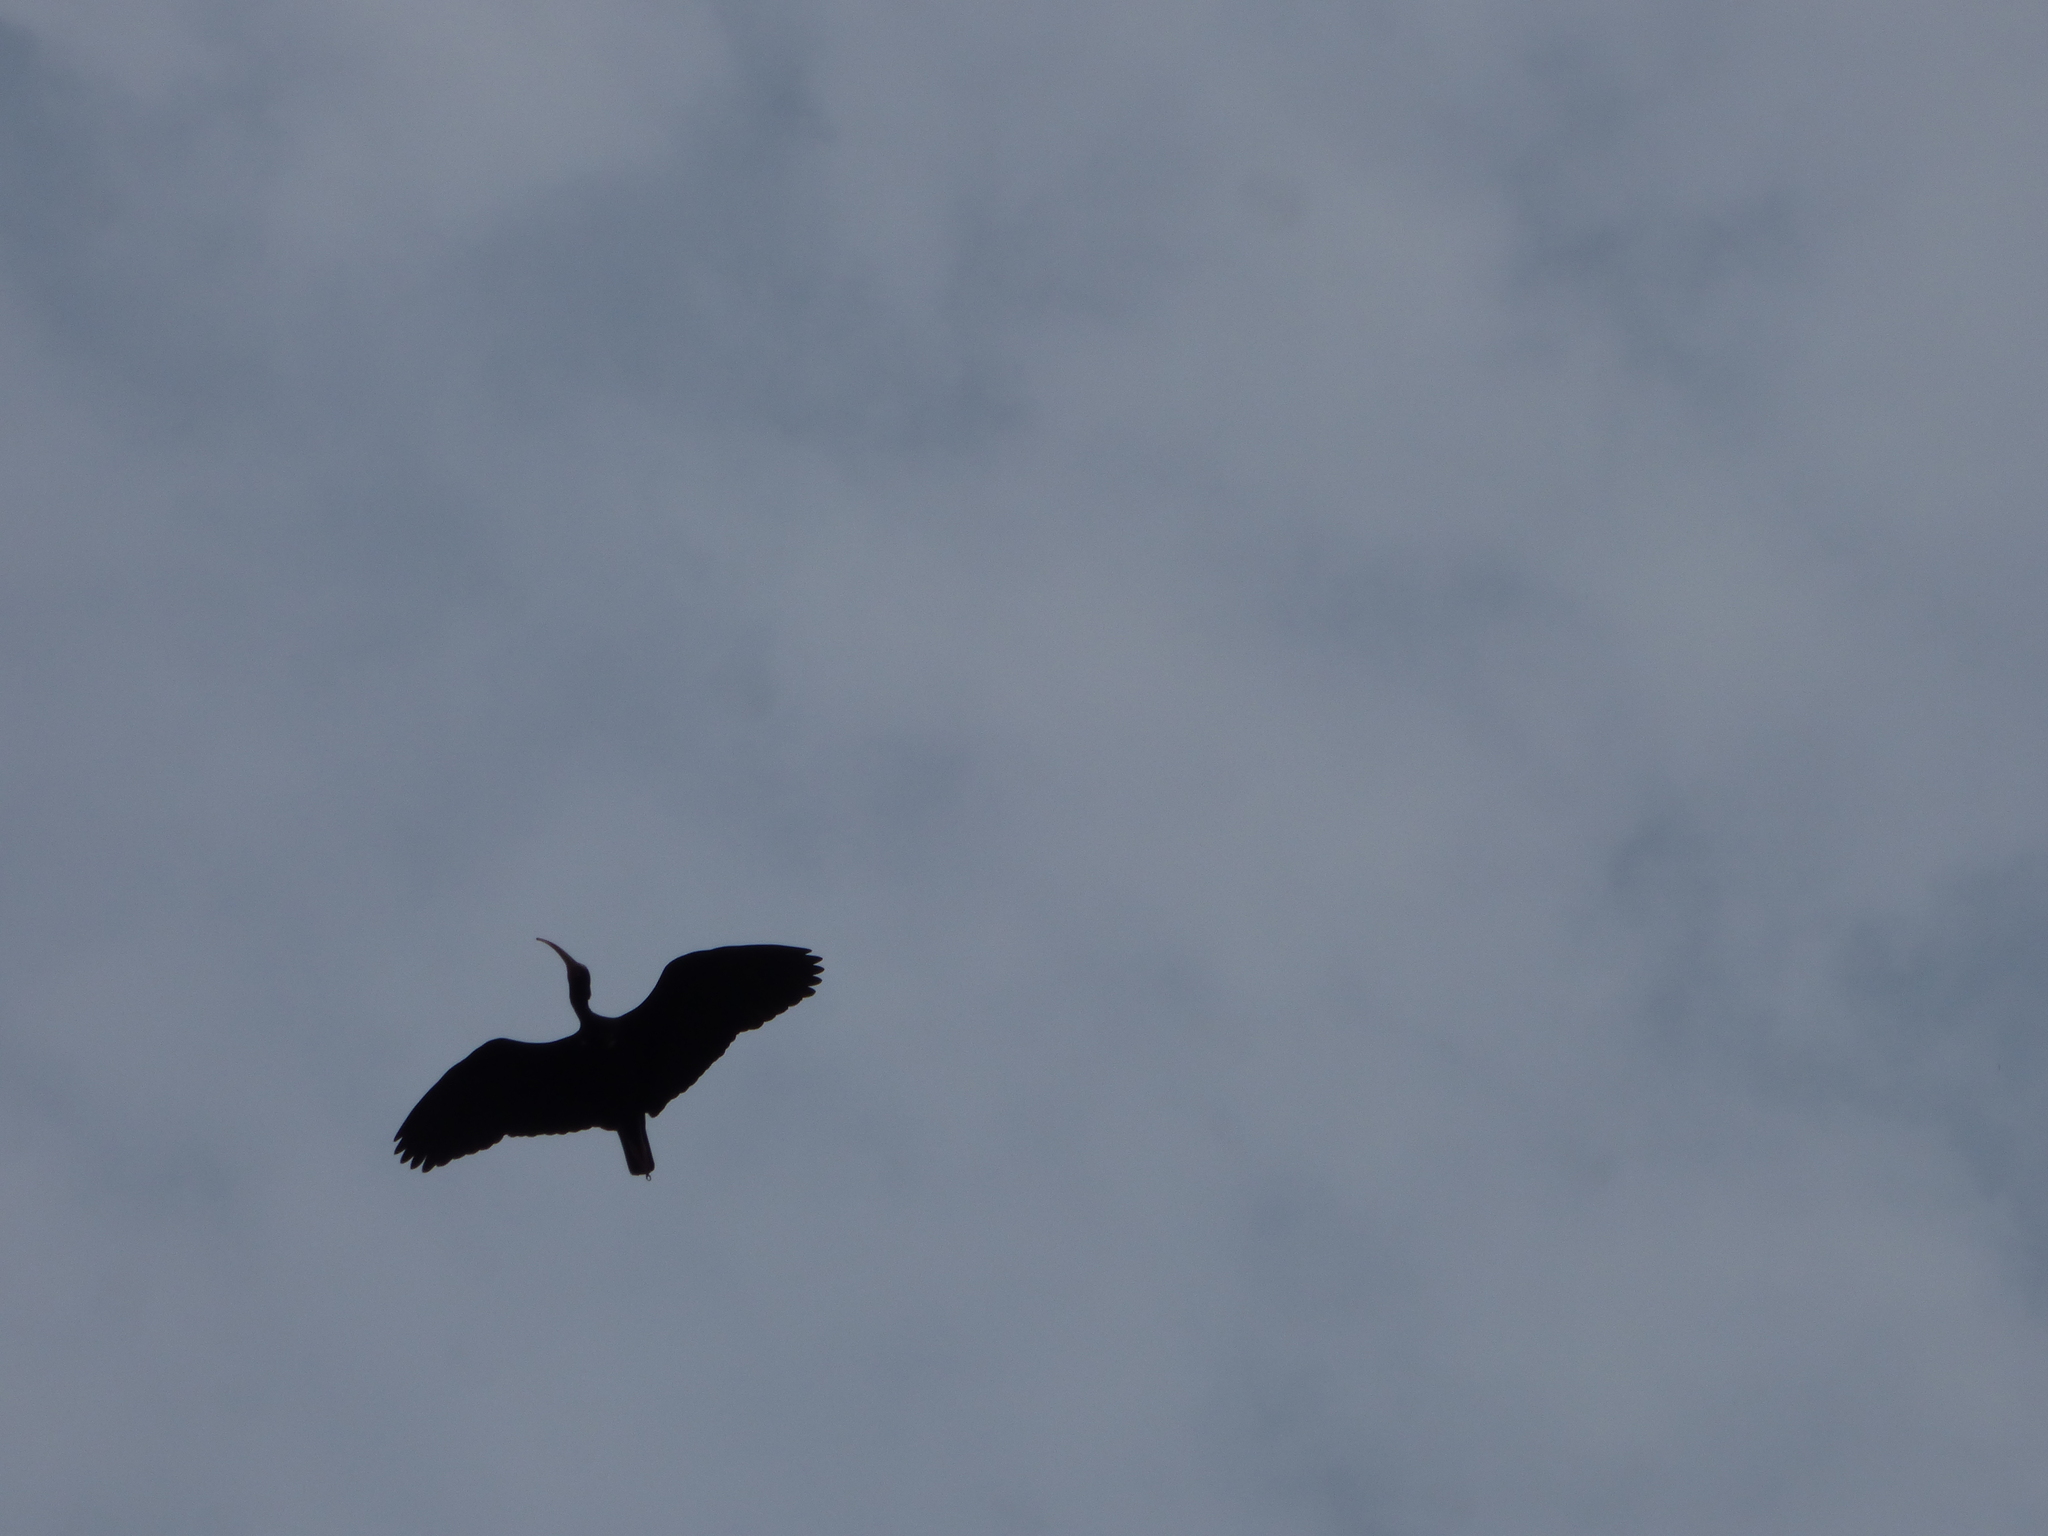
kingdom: Animalia
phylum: Chordata
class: Aves
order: Pelecaniformes
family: Threskiornithidae
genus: Phimosus
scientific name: Phimosus infuscatus
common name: Bare-faced ibis
